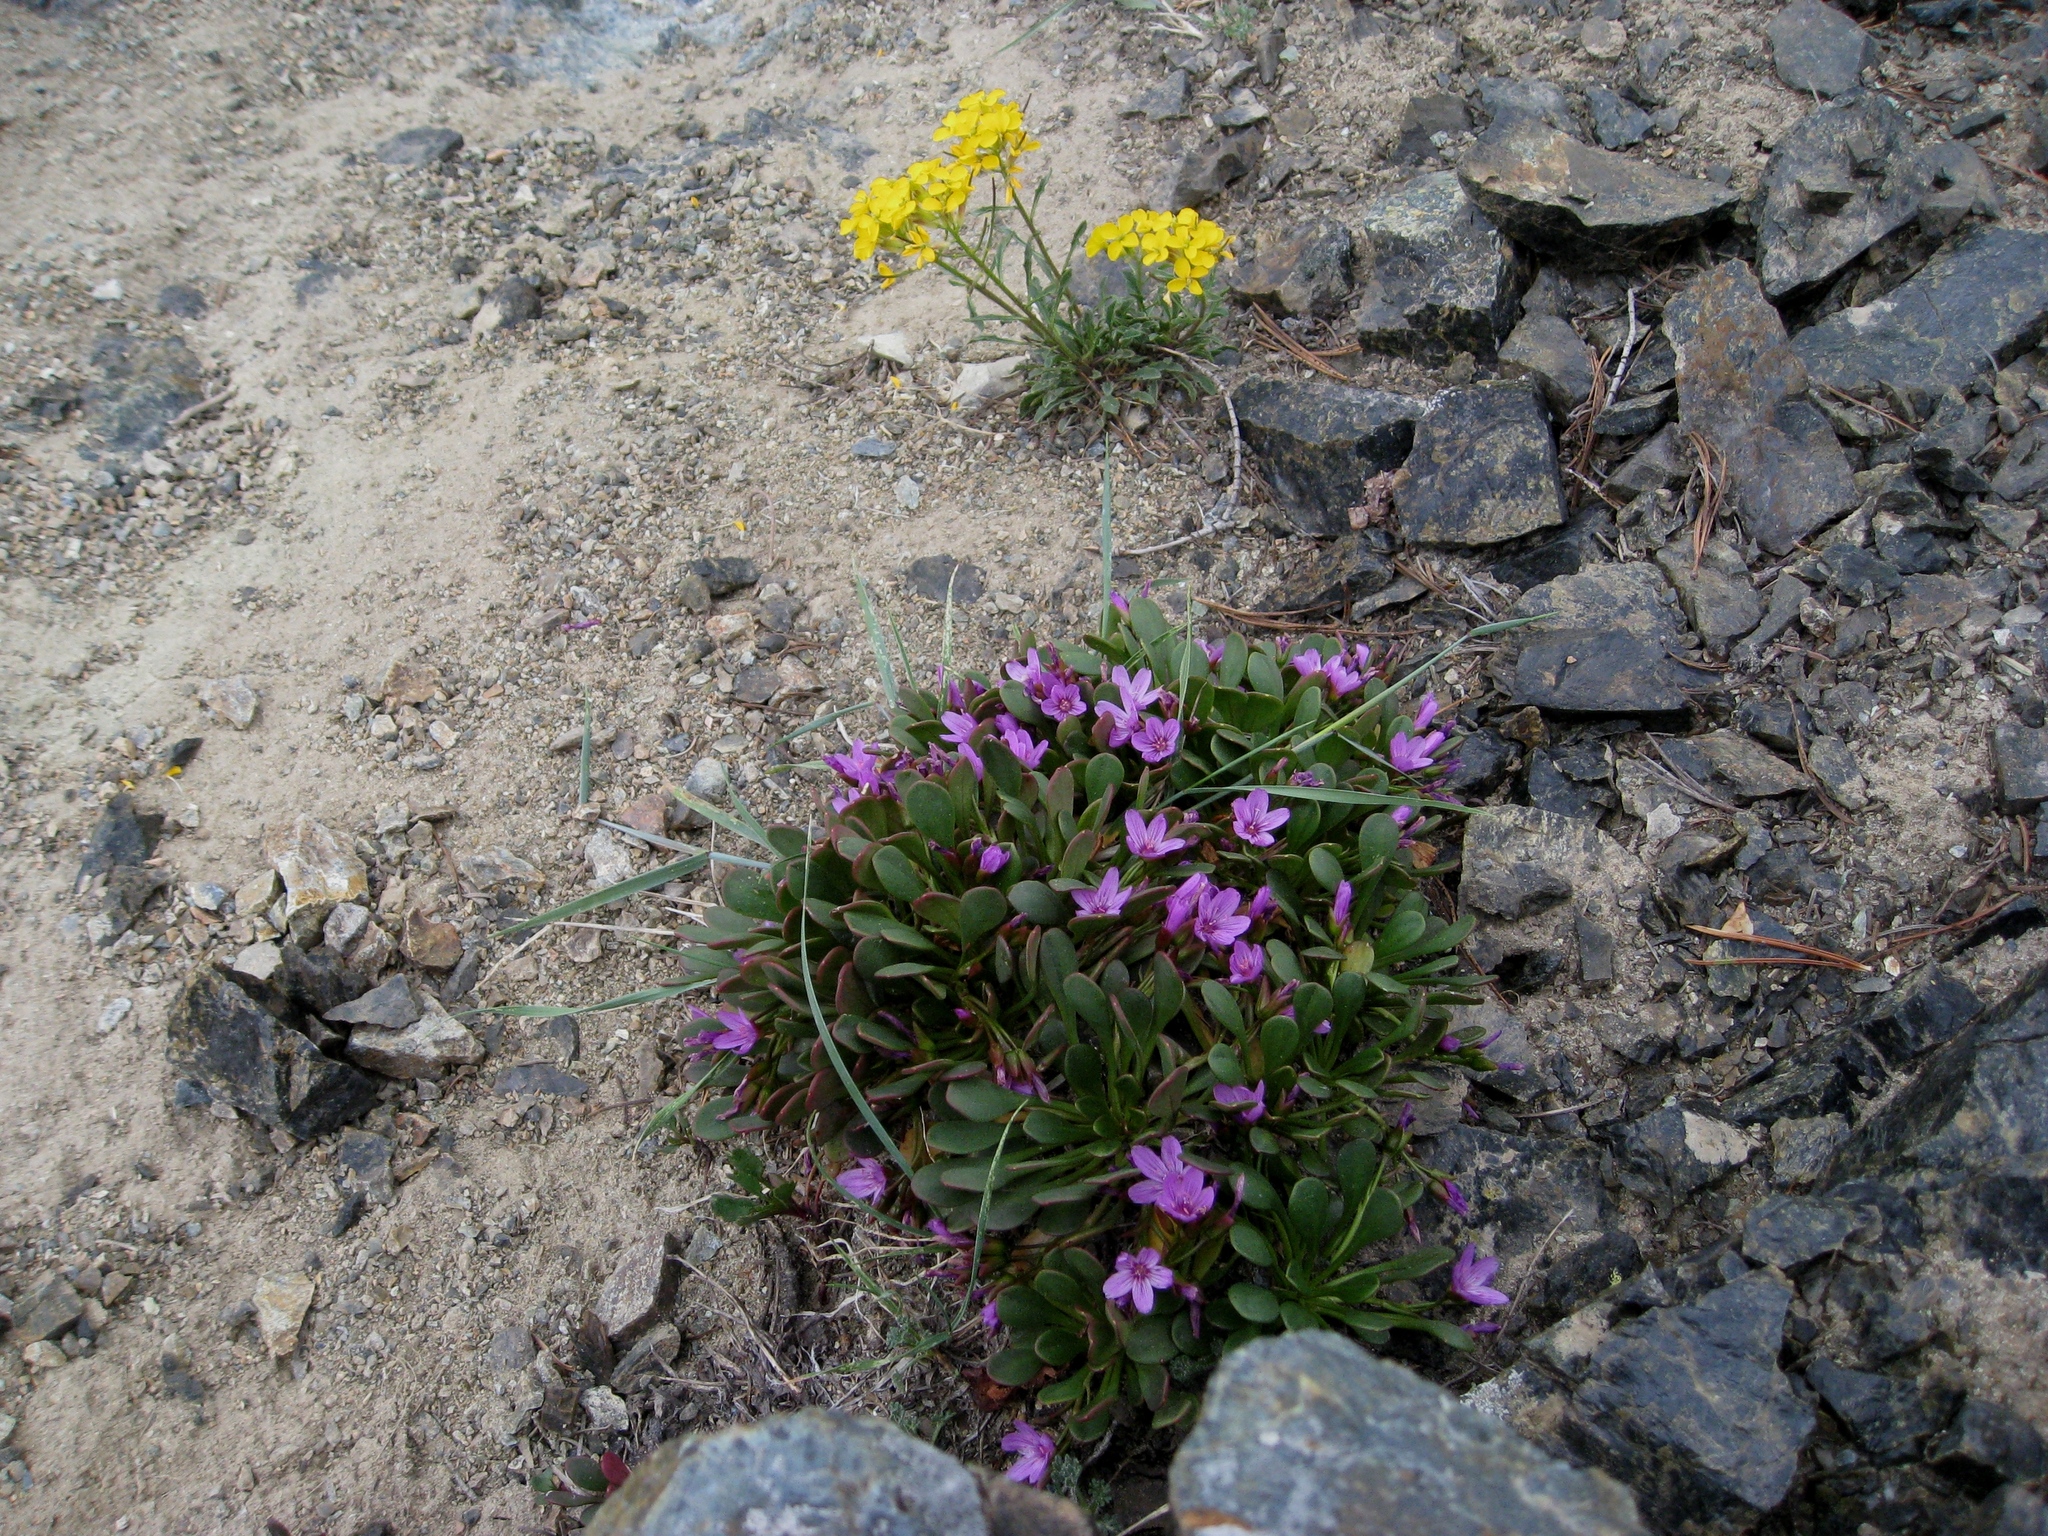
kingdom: Plantae
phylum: Tracheophyta
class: Magnoliopsida
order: Brassicales
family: Brassicaceae
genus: Erysimum
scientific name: Erysimum capitatum
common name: Western wallflower
